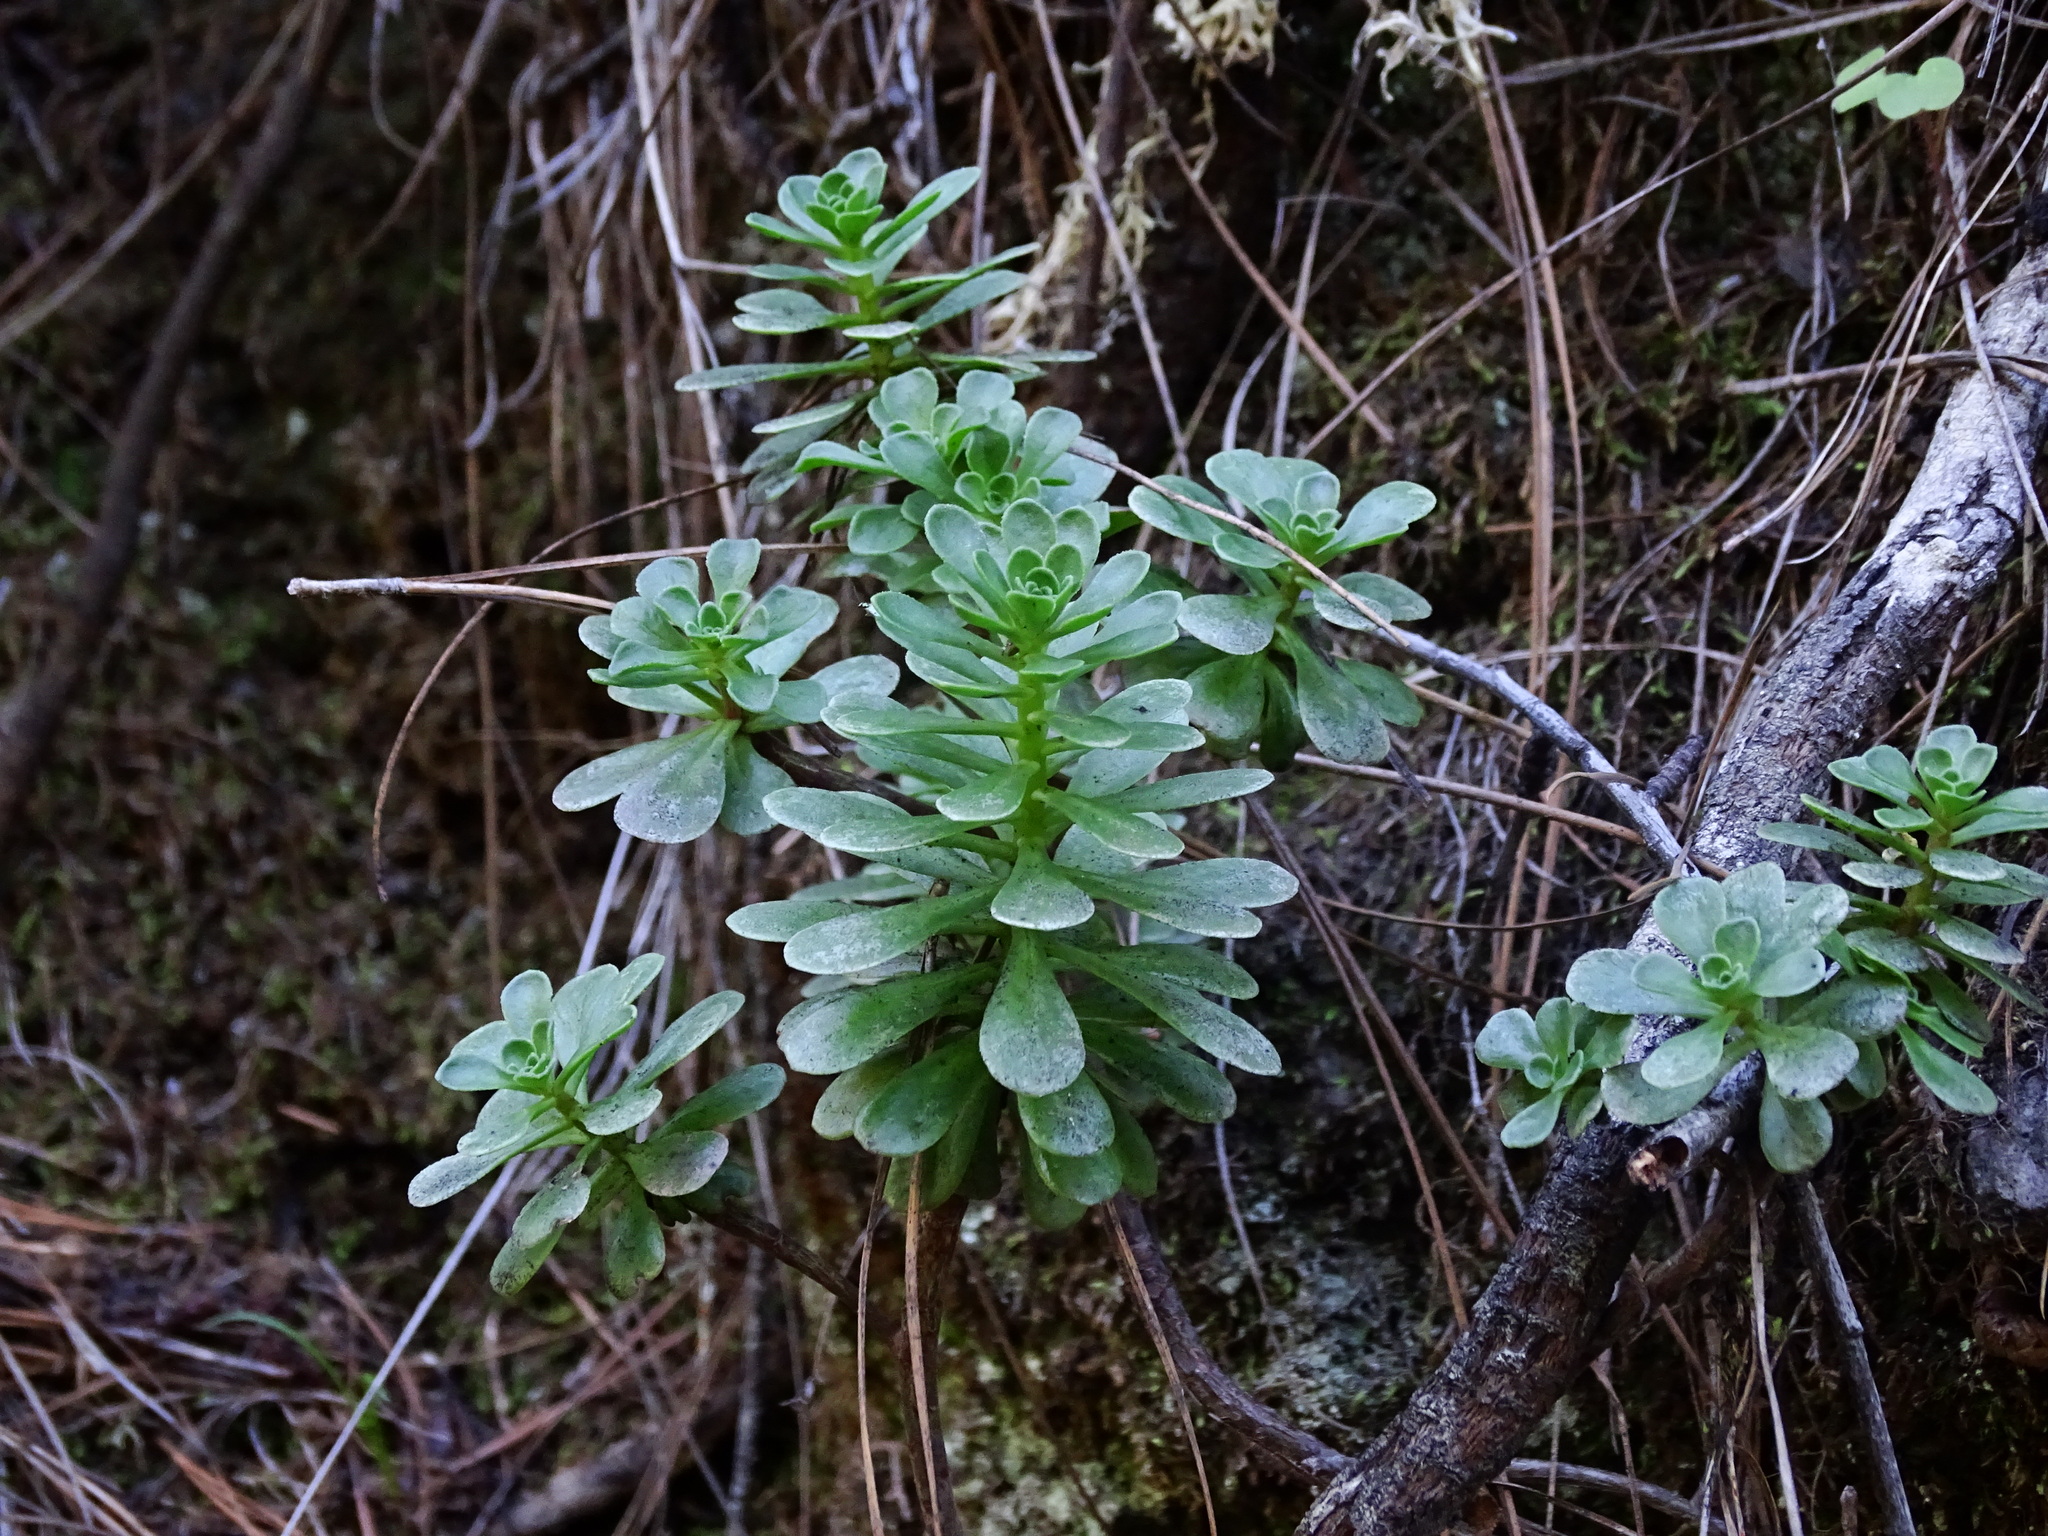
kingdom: Plantae
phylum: Tracheophyta
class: Magnoliopsida
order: Saxifragales
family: Crassulaceae
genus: Aeonium
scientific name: Aeonium spathulatum
